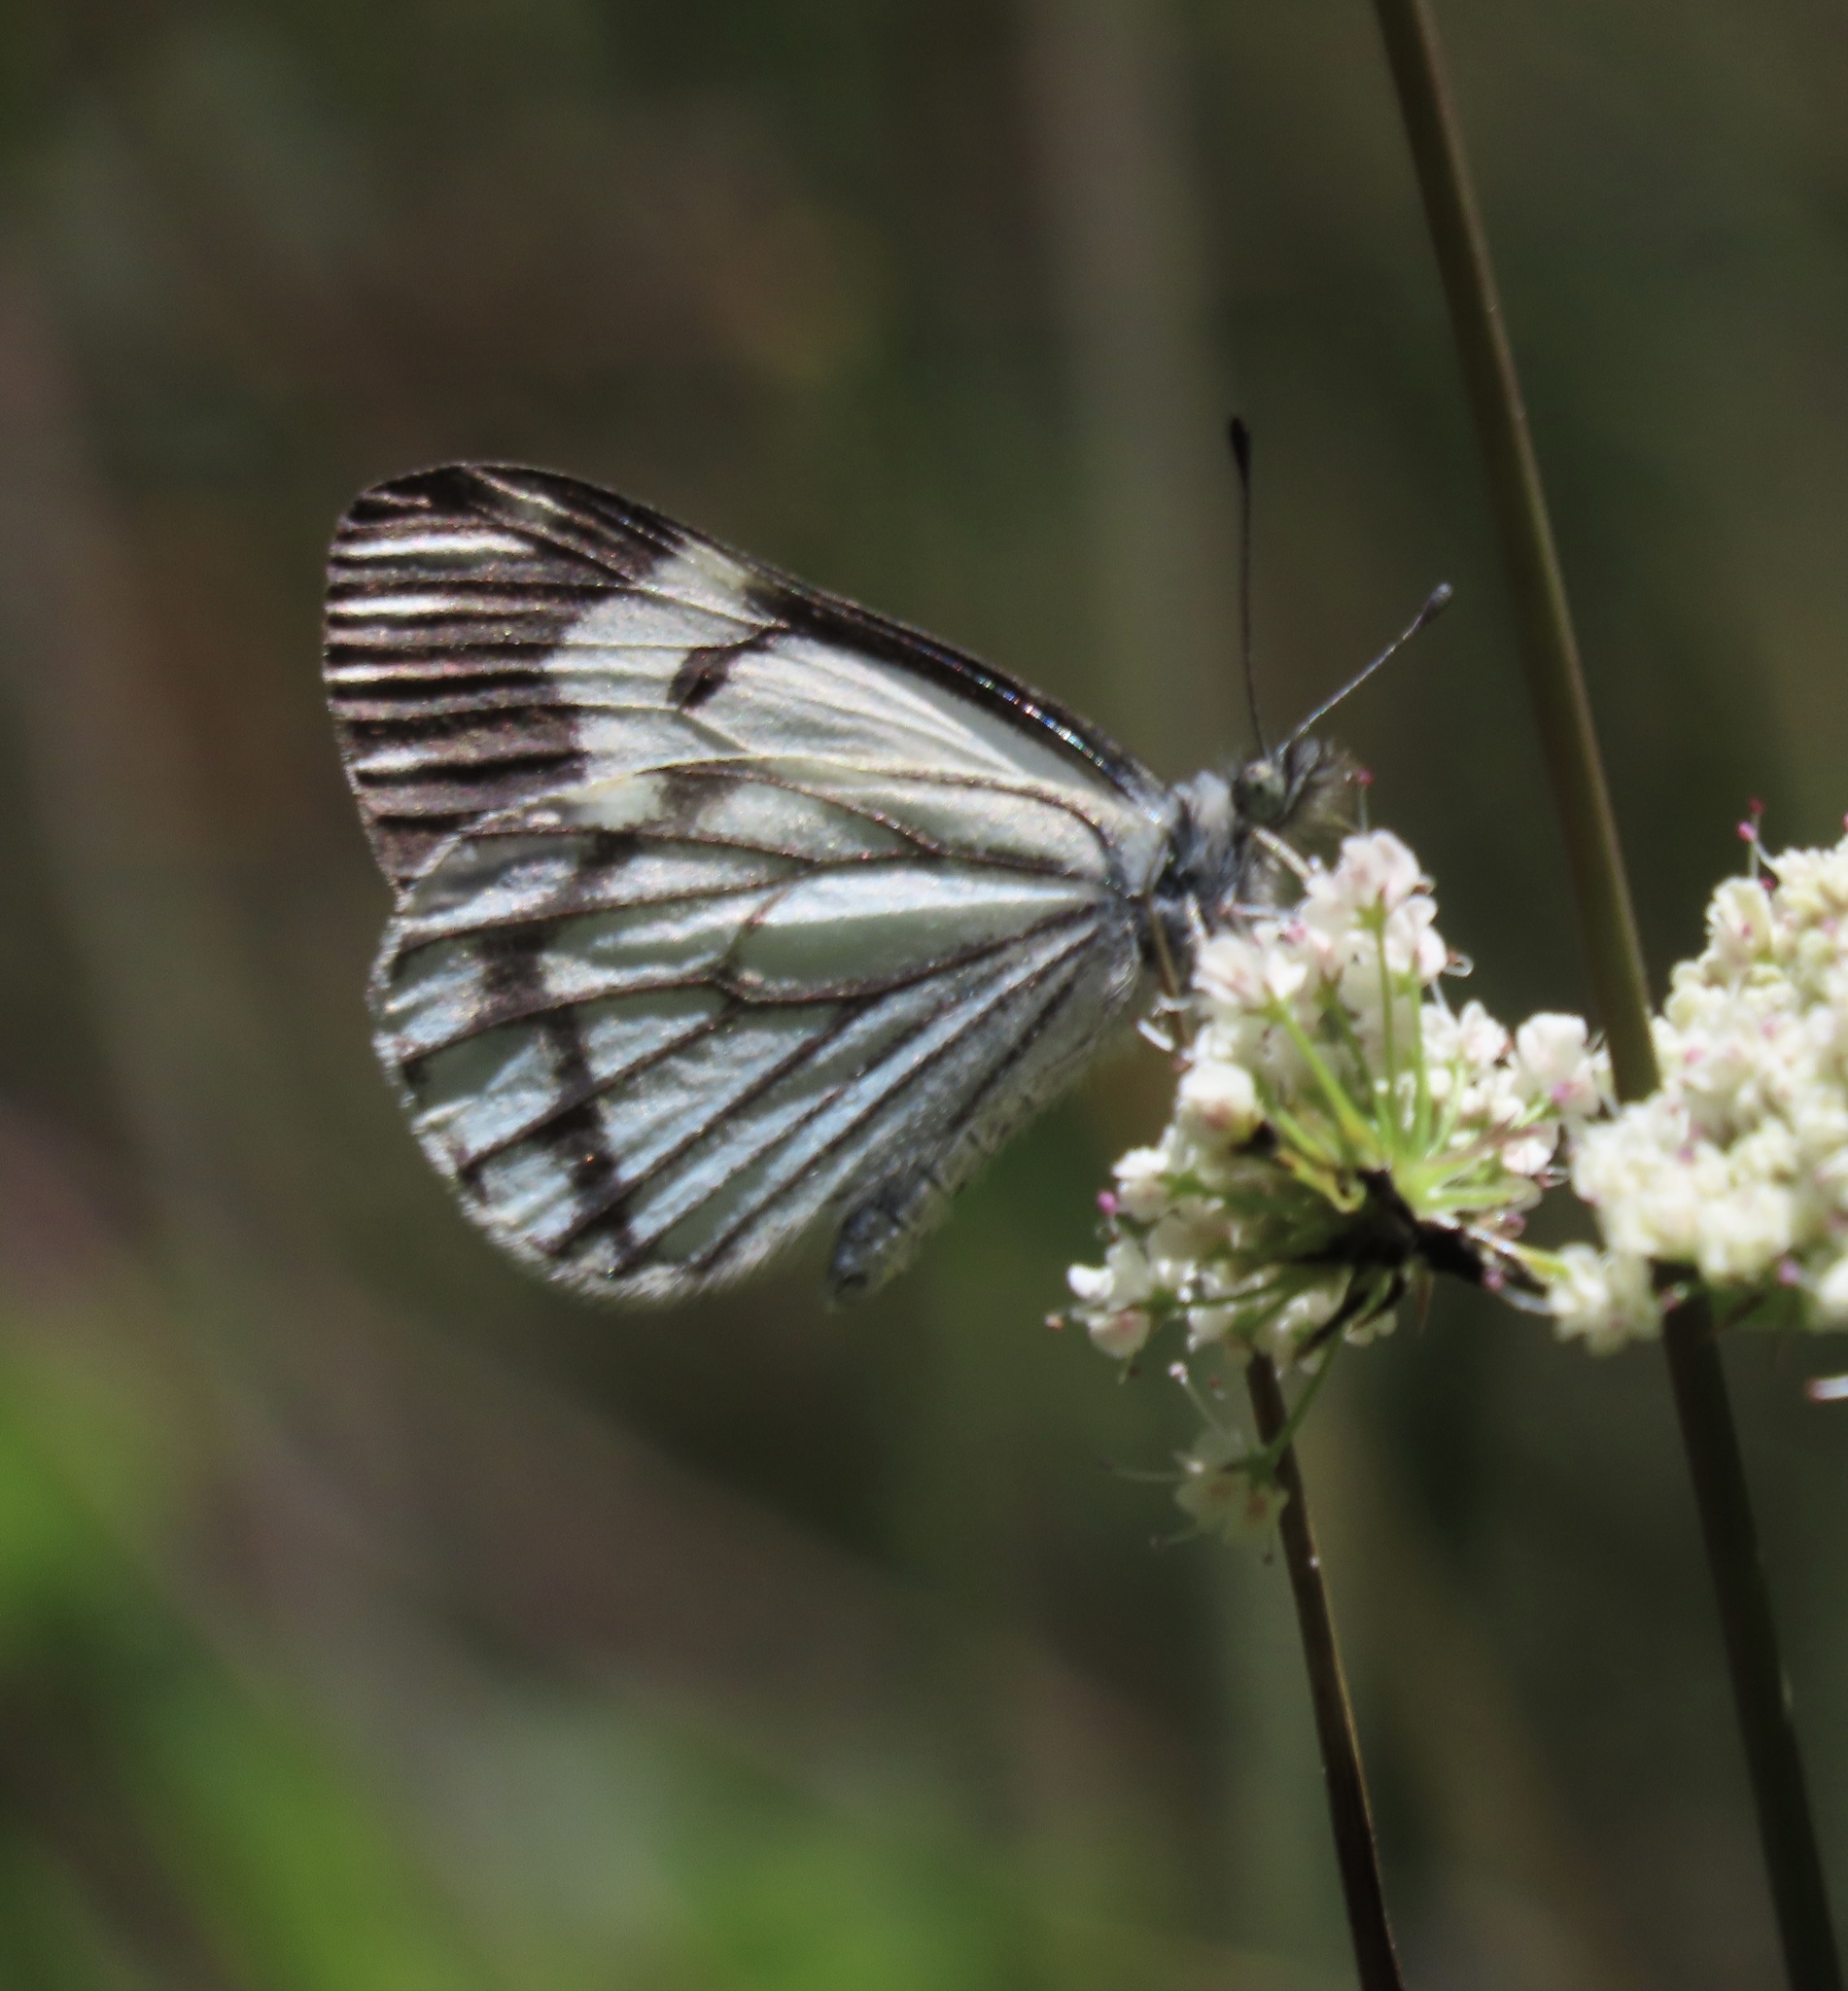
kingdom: Animalia
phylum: Arthropoda
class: Insecta
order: Lepidoptera
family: Pieridae
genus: Neophasia
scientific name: Neophasia menapia
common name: Pine white
